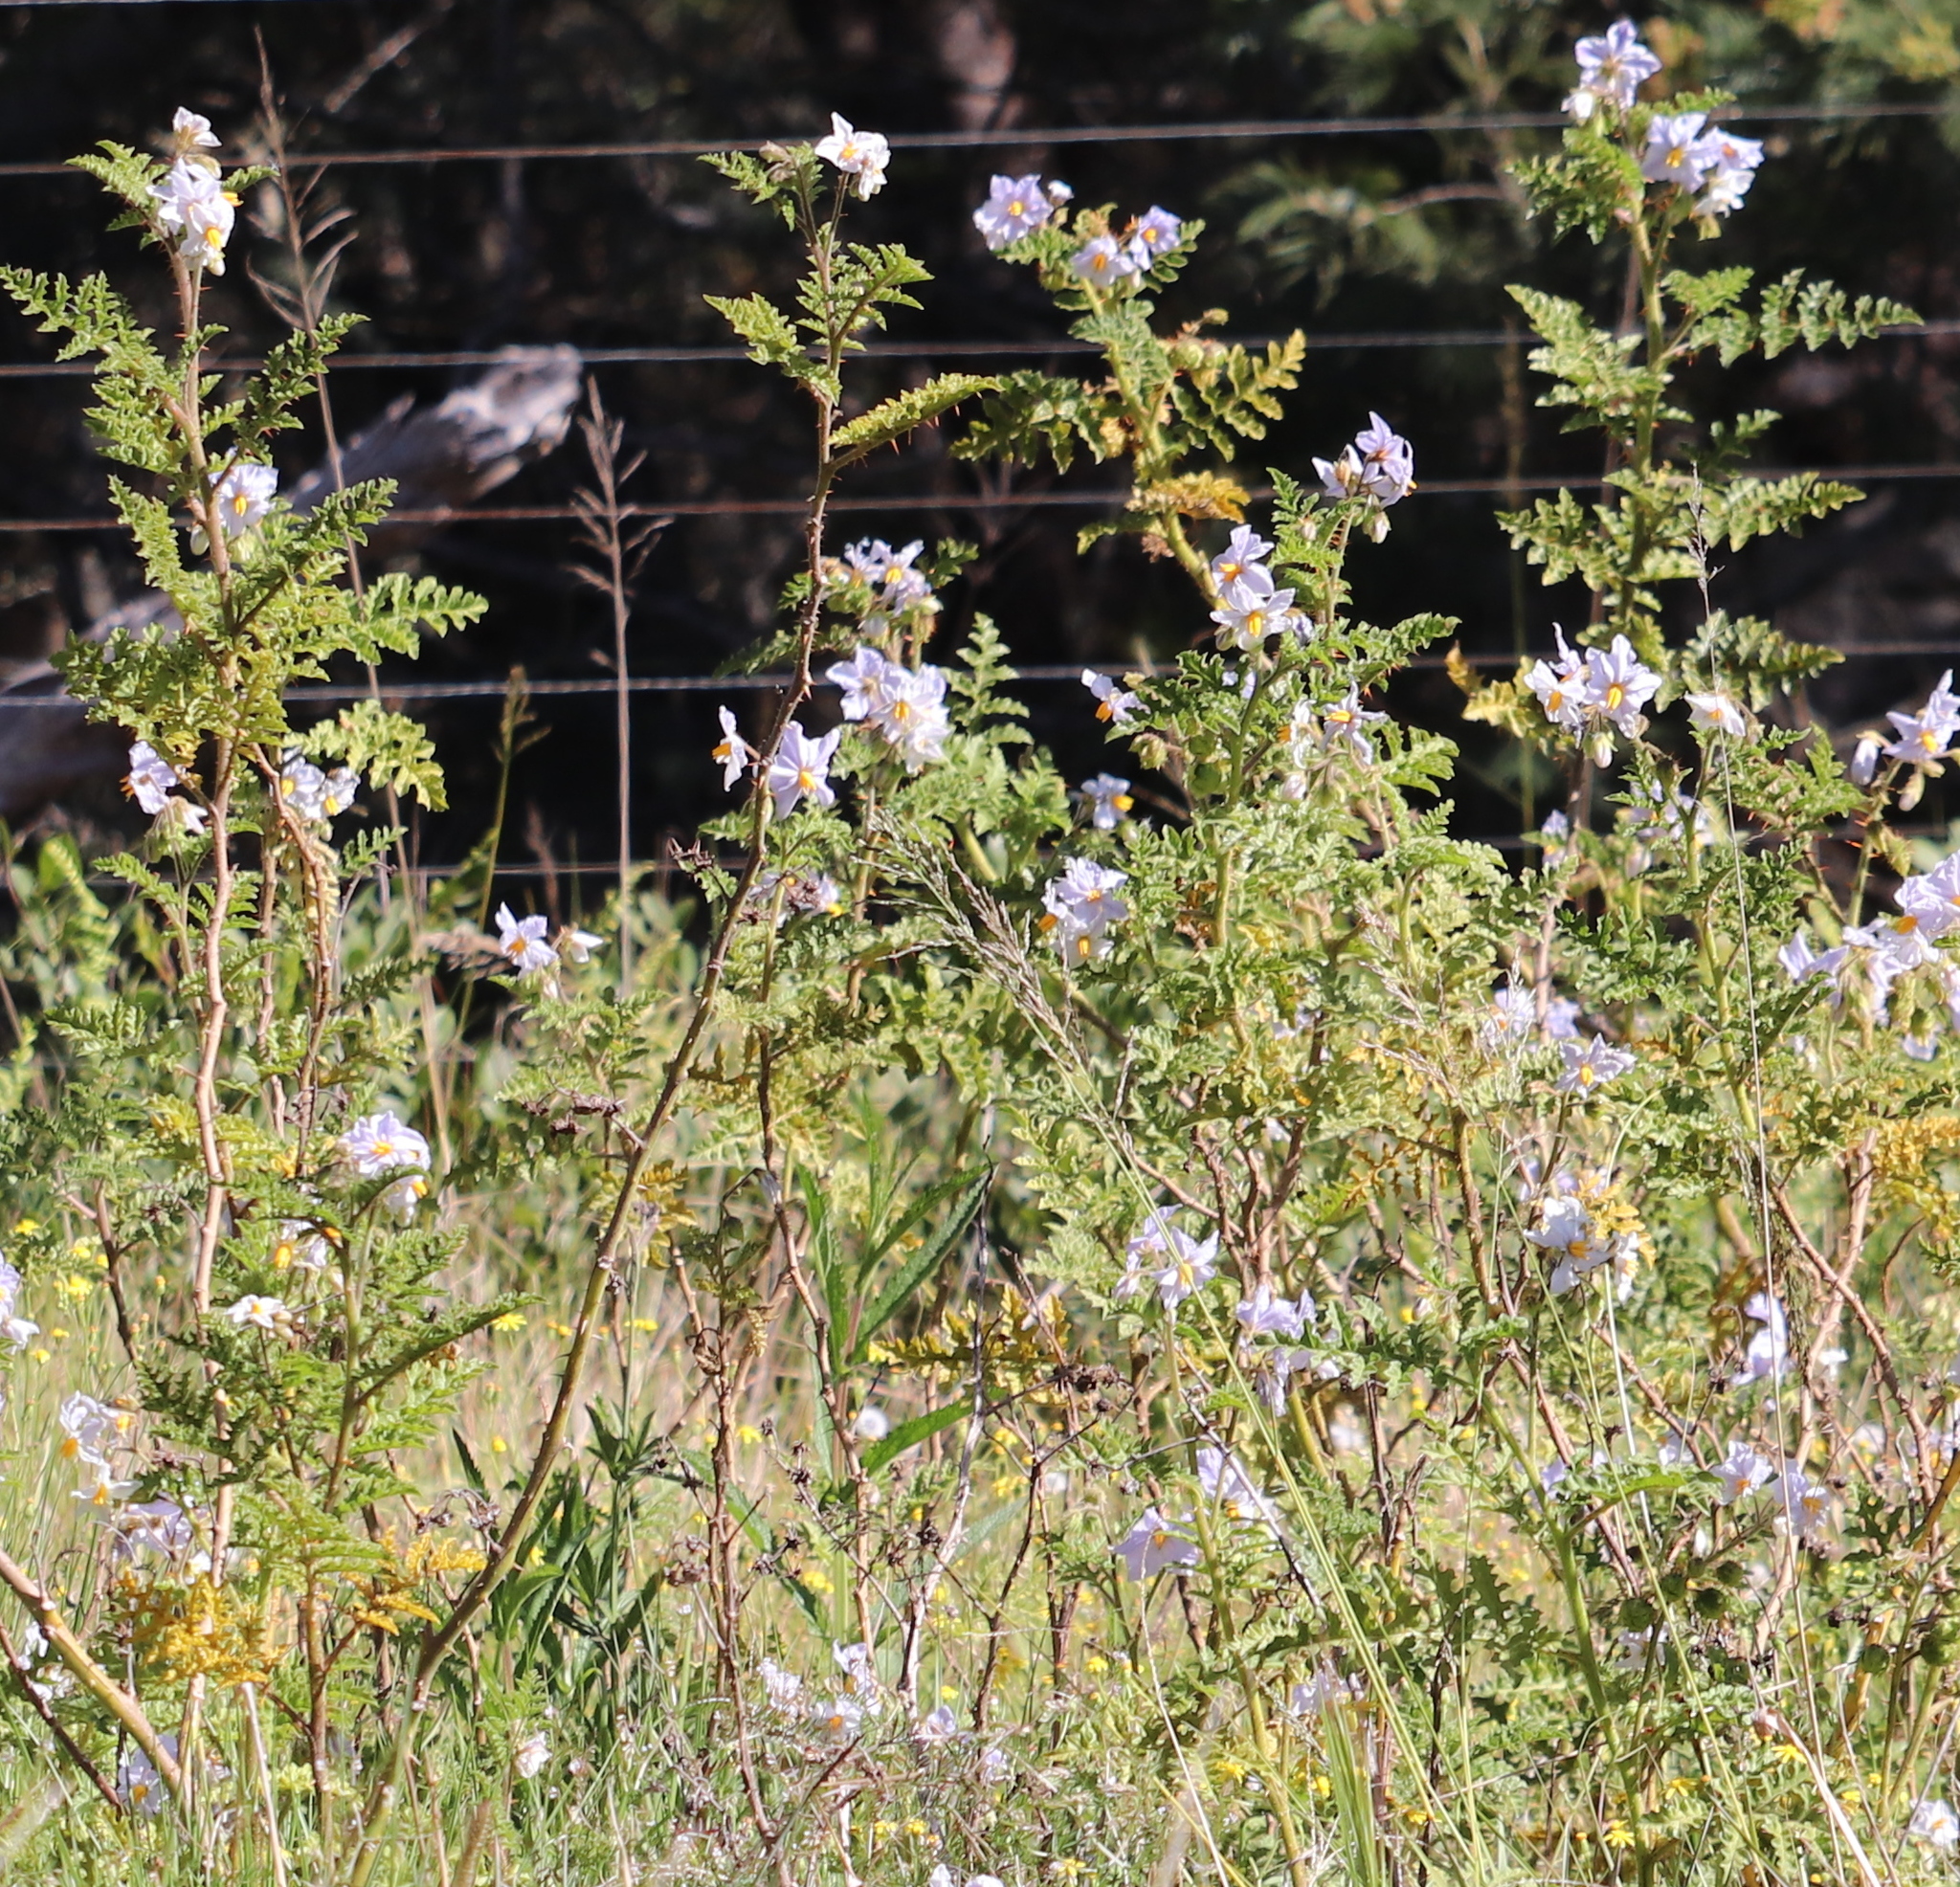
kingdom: Plantae
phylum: Tracheophyta
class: Magnoliopsida
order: Solanales
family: Solanaceae
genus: Solanum
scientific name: Solanum sisymbriifolium
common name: Red buffalo-bur
